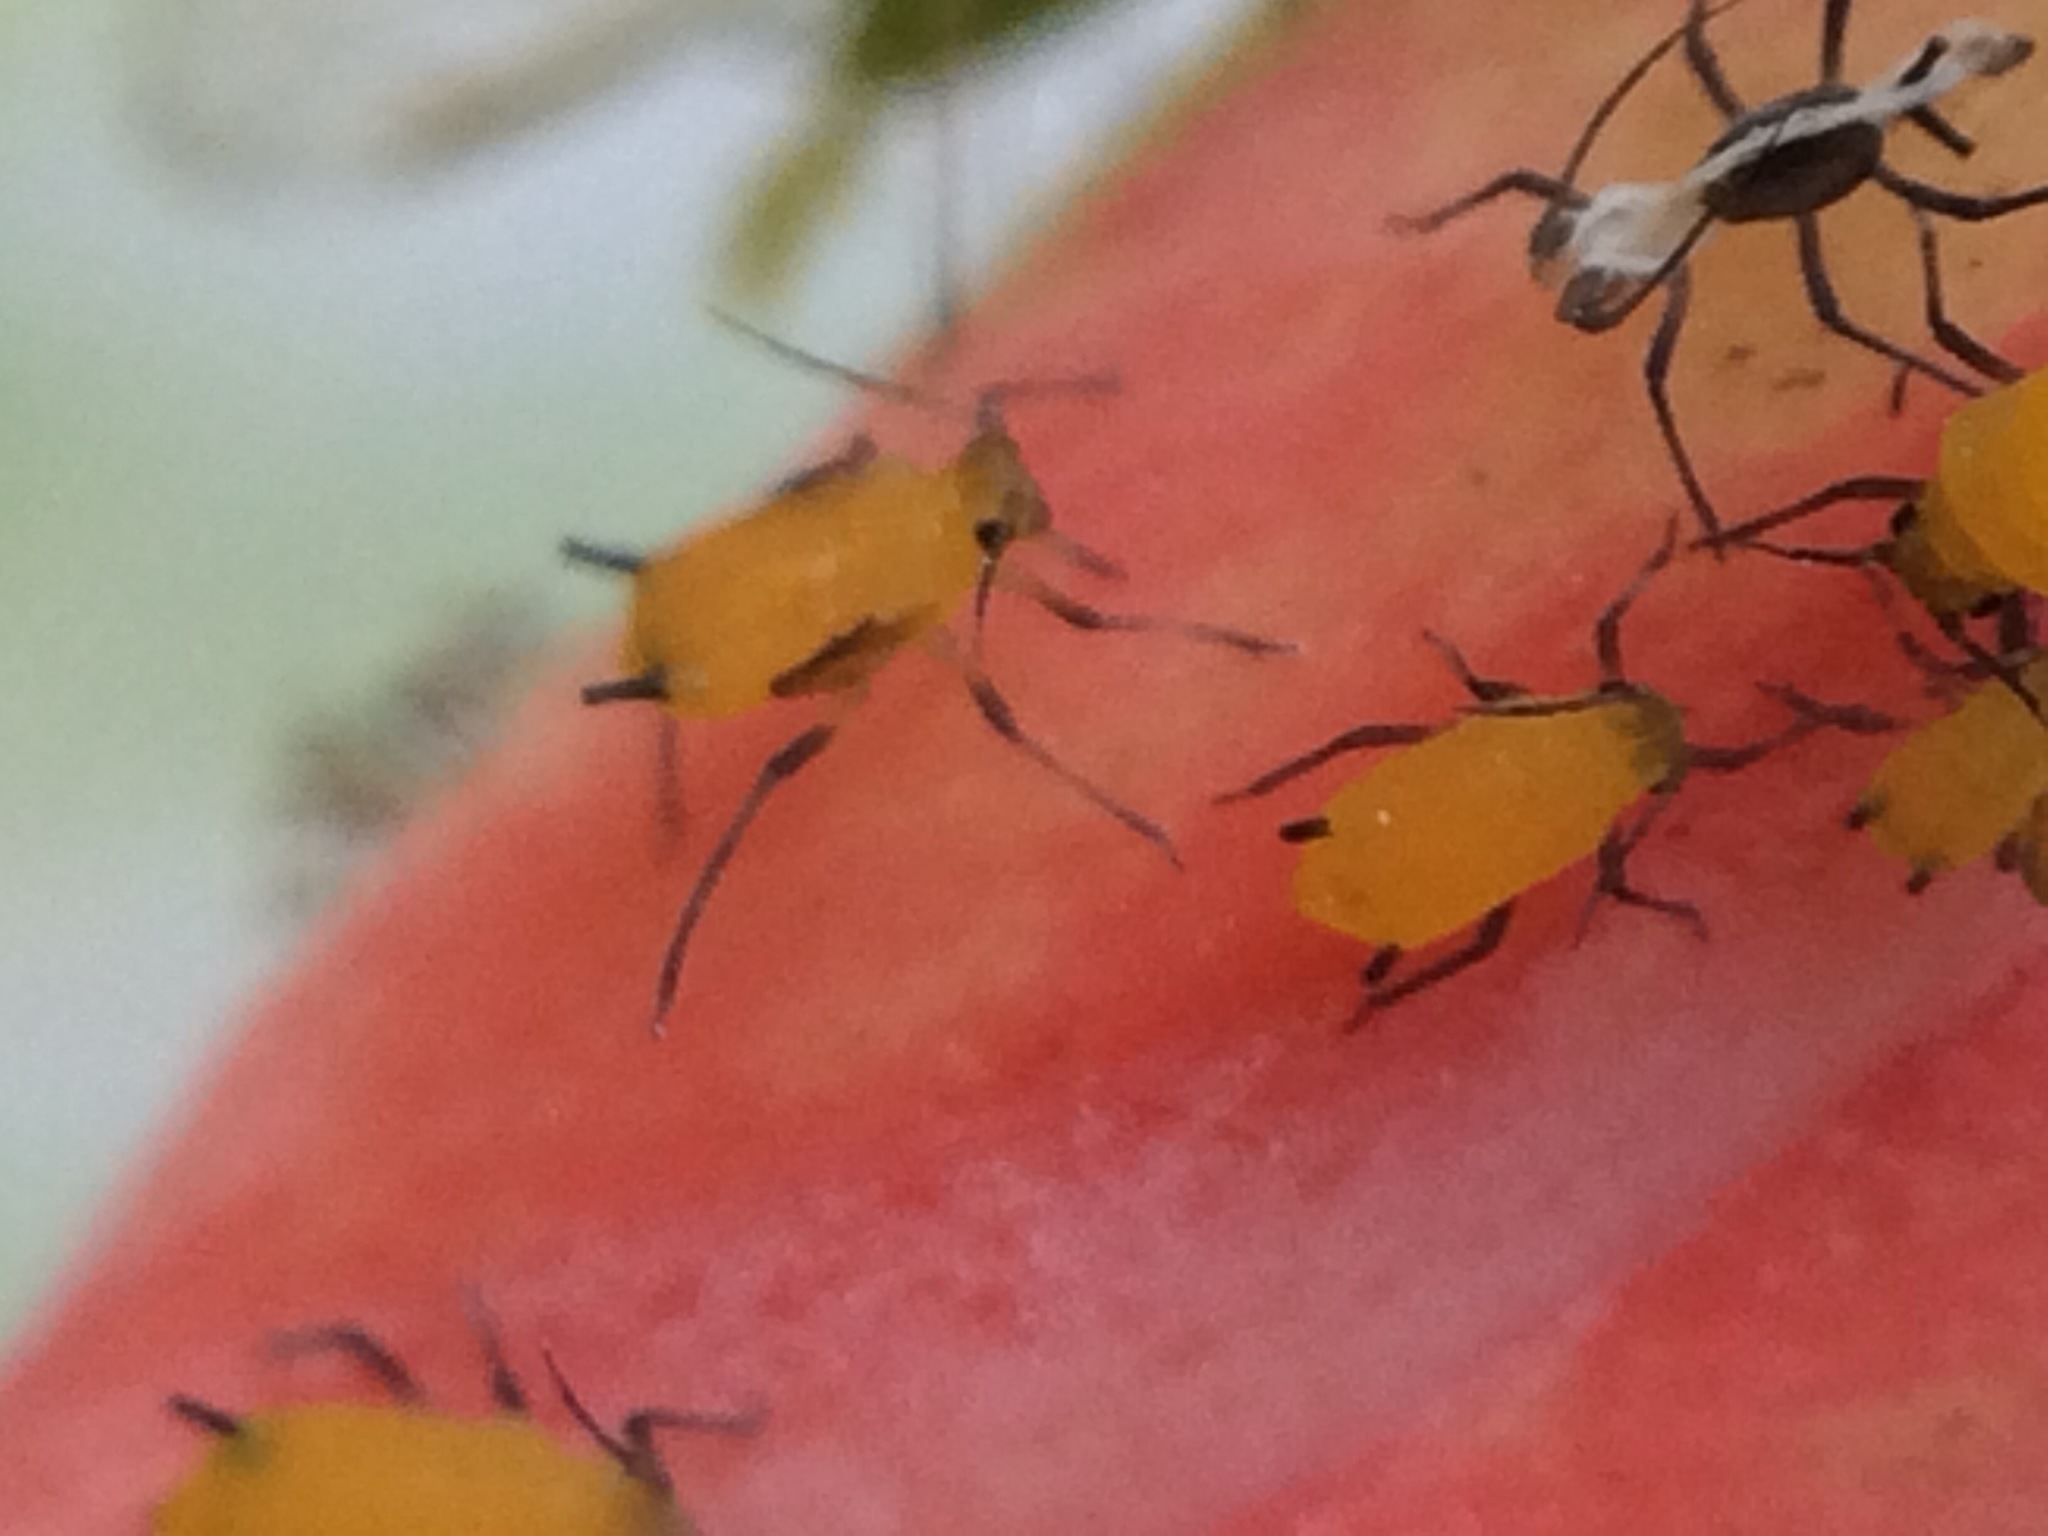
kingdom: Animalia
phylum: Arthropoda
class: Insecta
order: Hemiptera
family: Aphididae
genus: Aphis
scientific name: Aphis nerii
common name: Oleander aphid
